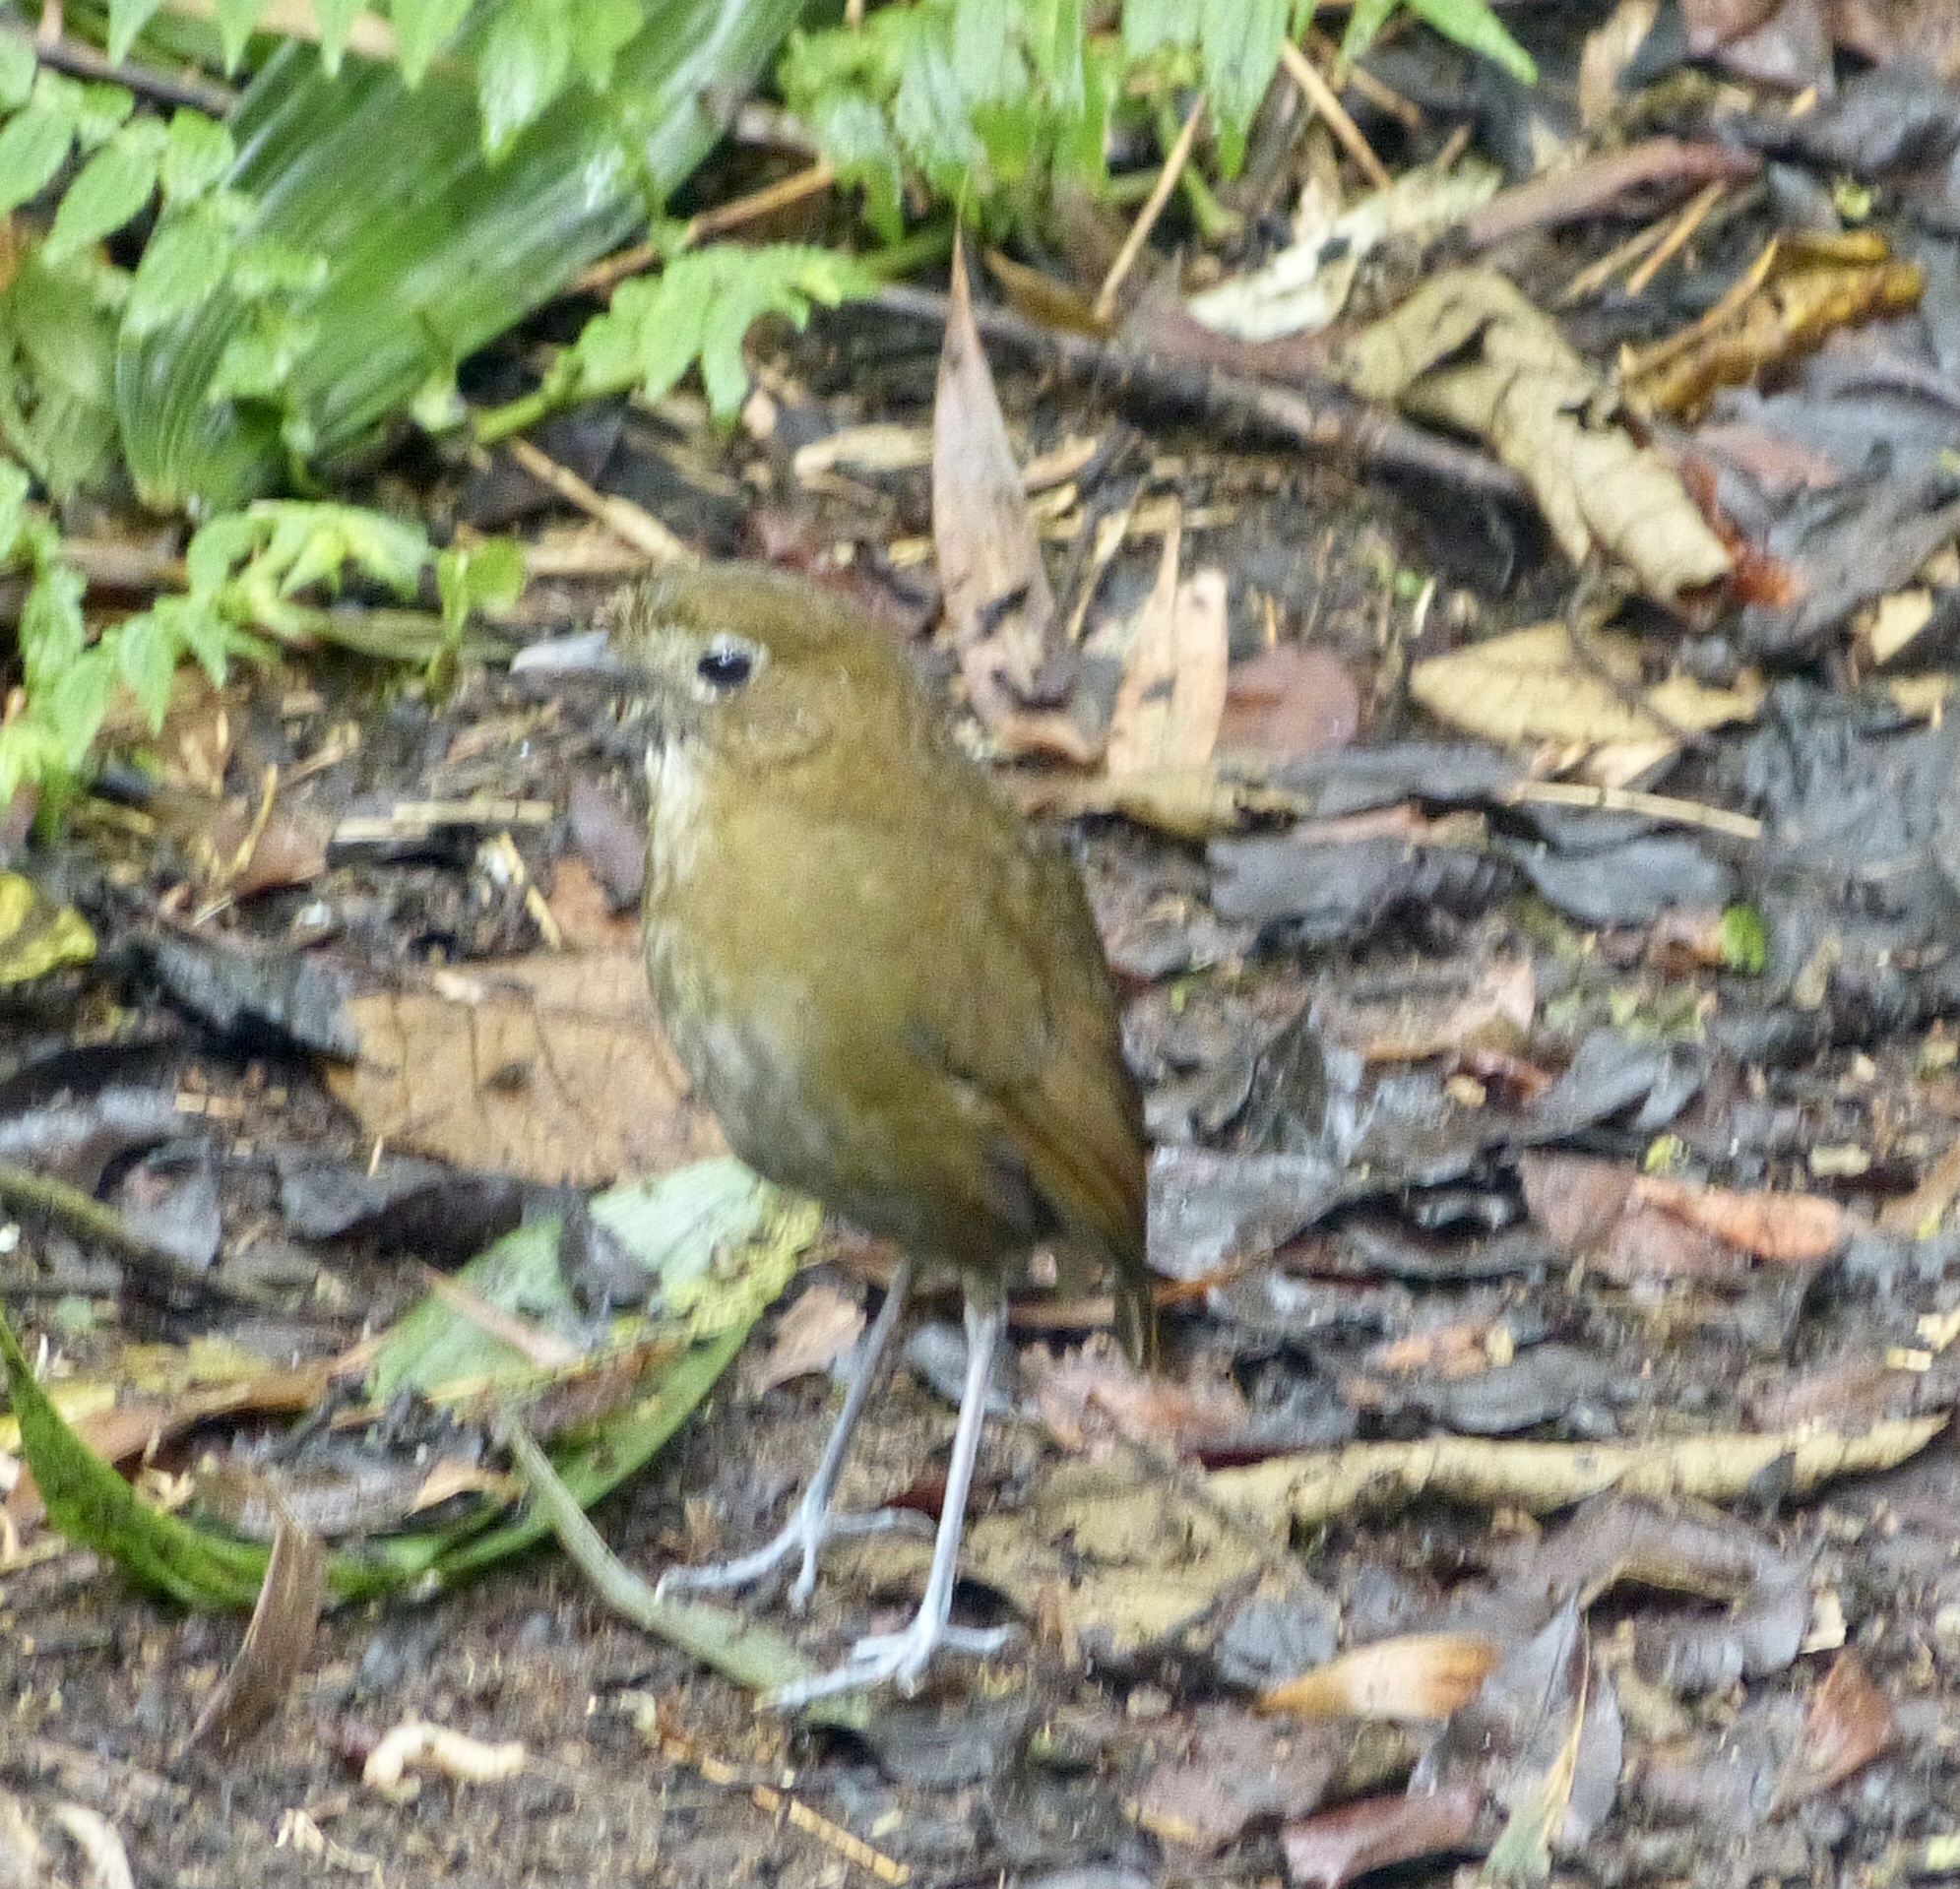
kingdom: Animalia
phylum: Chordata
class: Aves
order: Passeriformes
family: Grallariidae
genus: Grallaria
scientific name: Grallaria milleri
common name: Brown-banded antpitta
